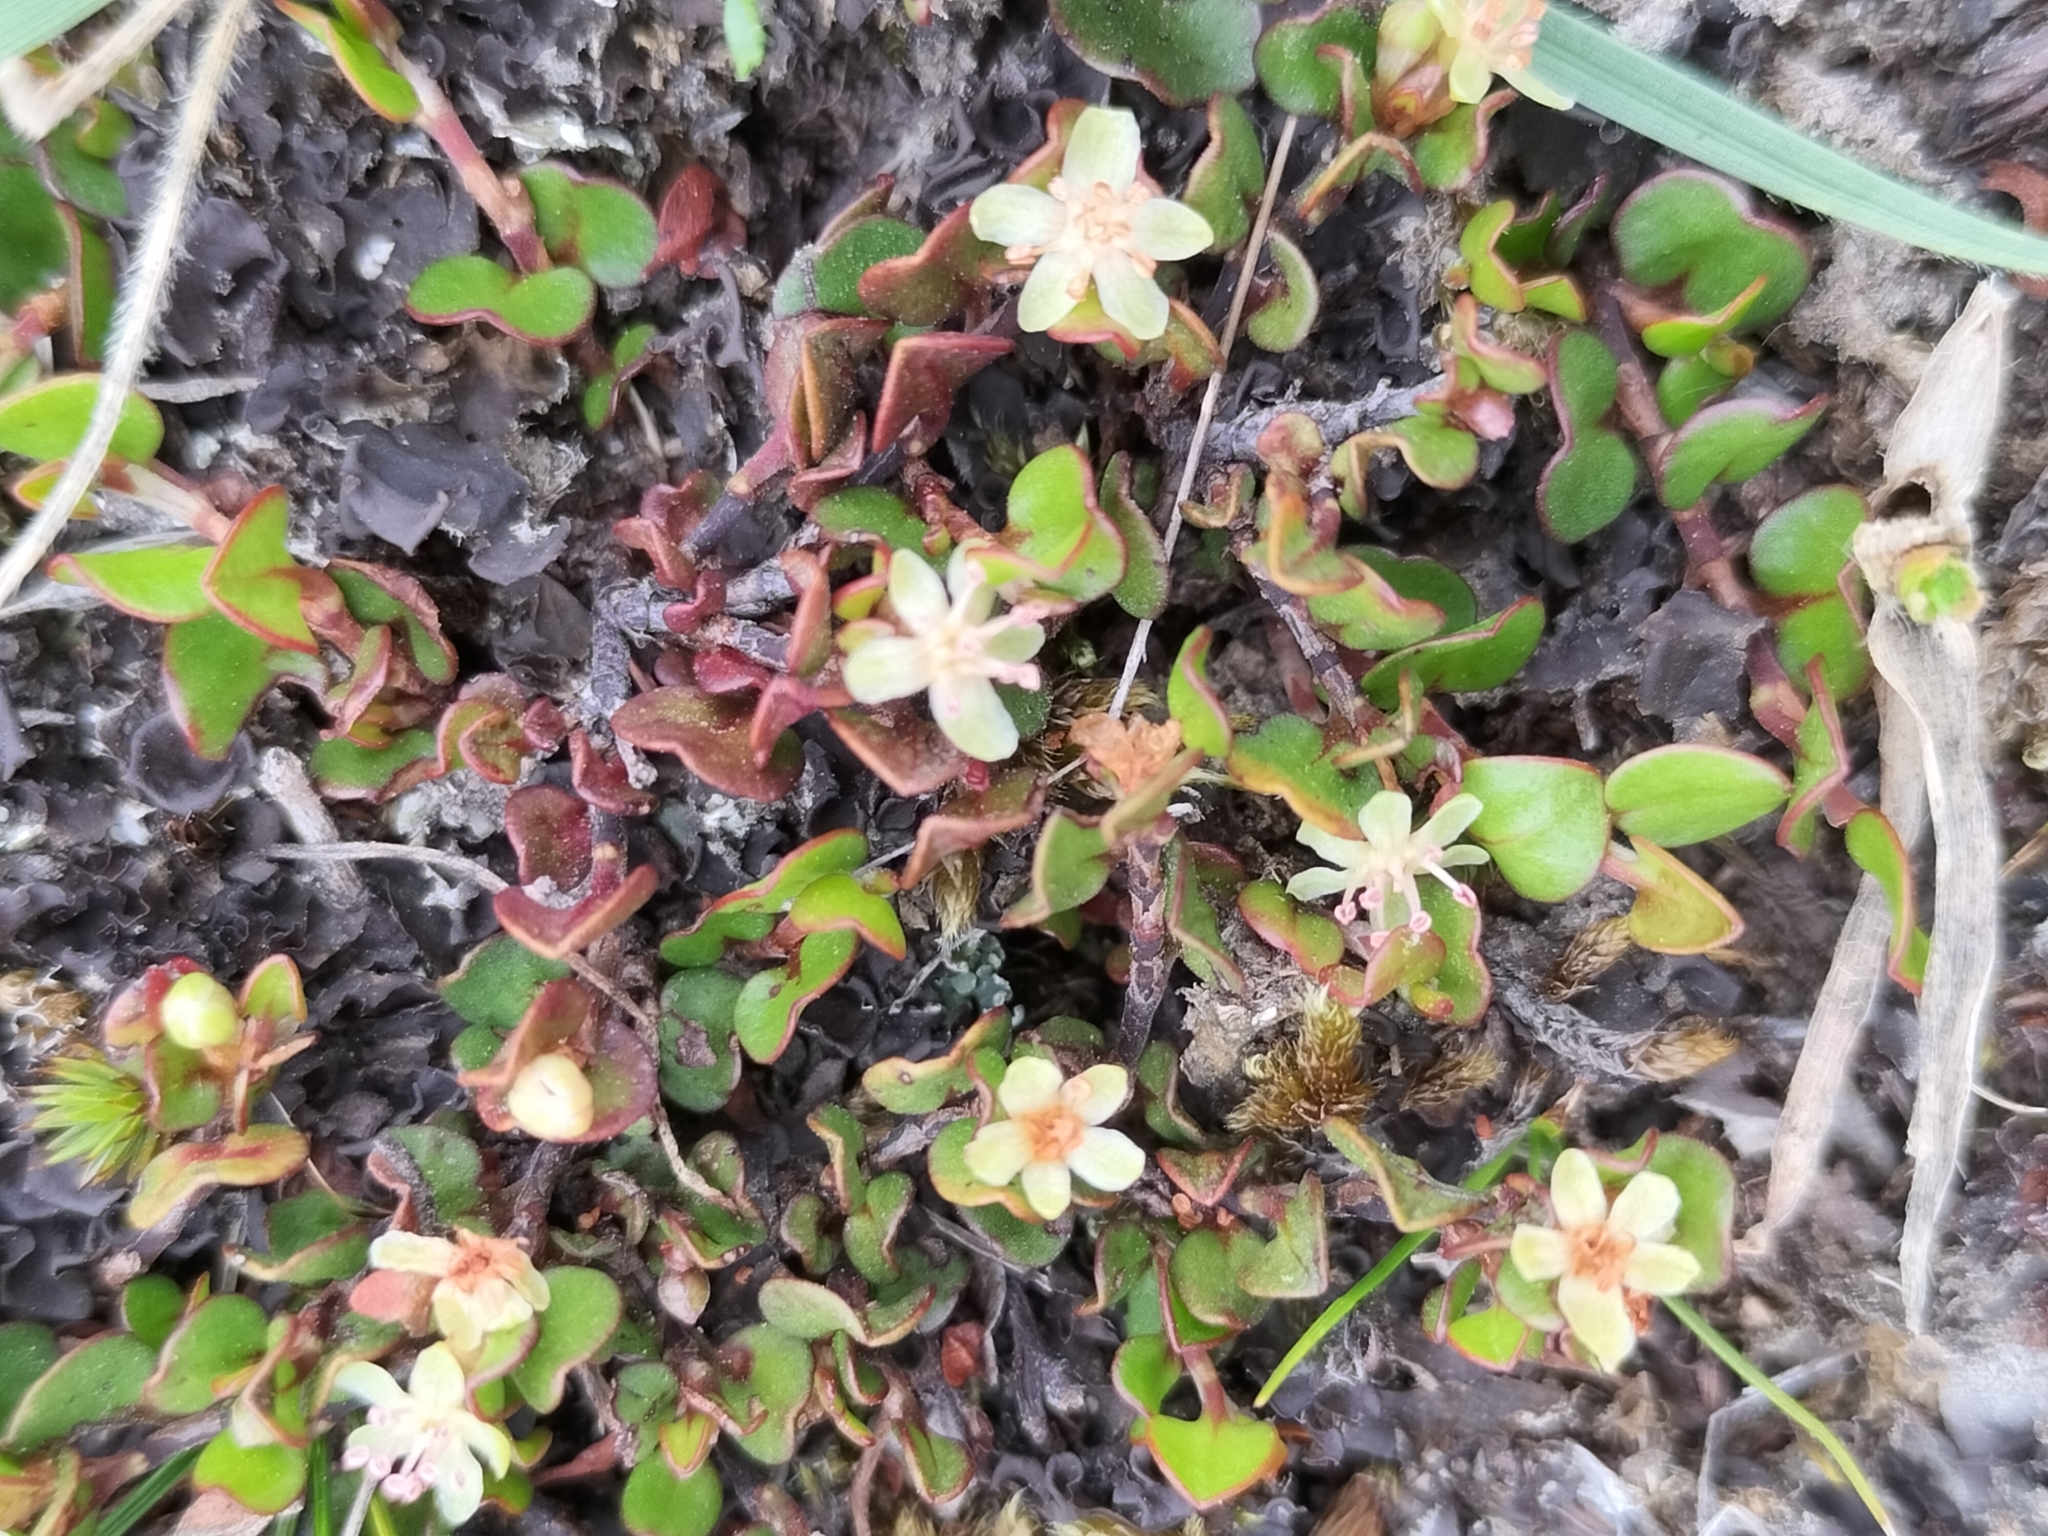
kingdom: Plantae
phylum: Tracheophyta
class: Magnoliopsida
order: Caryophyllales
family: Polygonaceae
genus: Muehlenbeckia
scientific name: Muehlenbeckia axillaris
